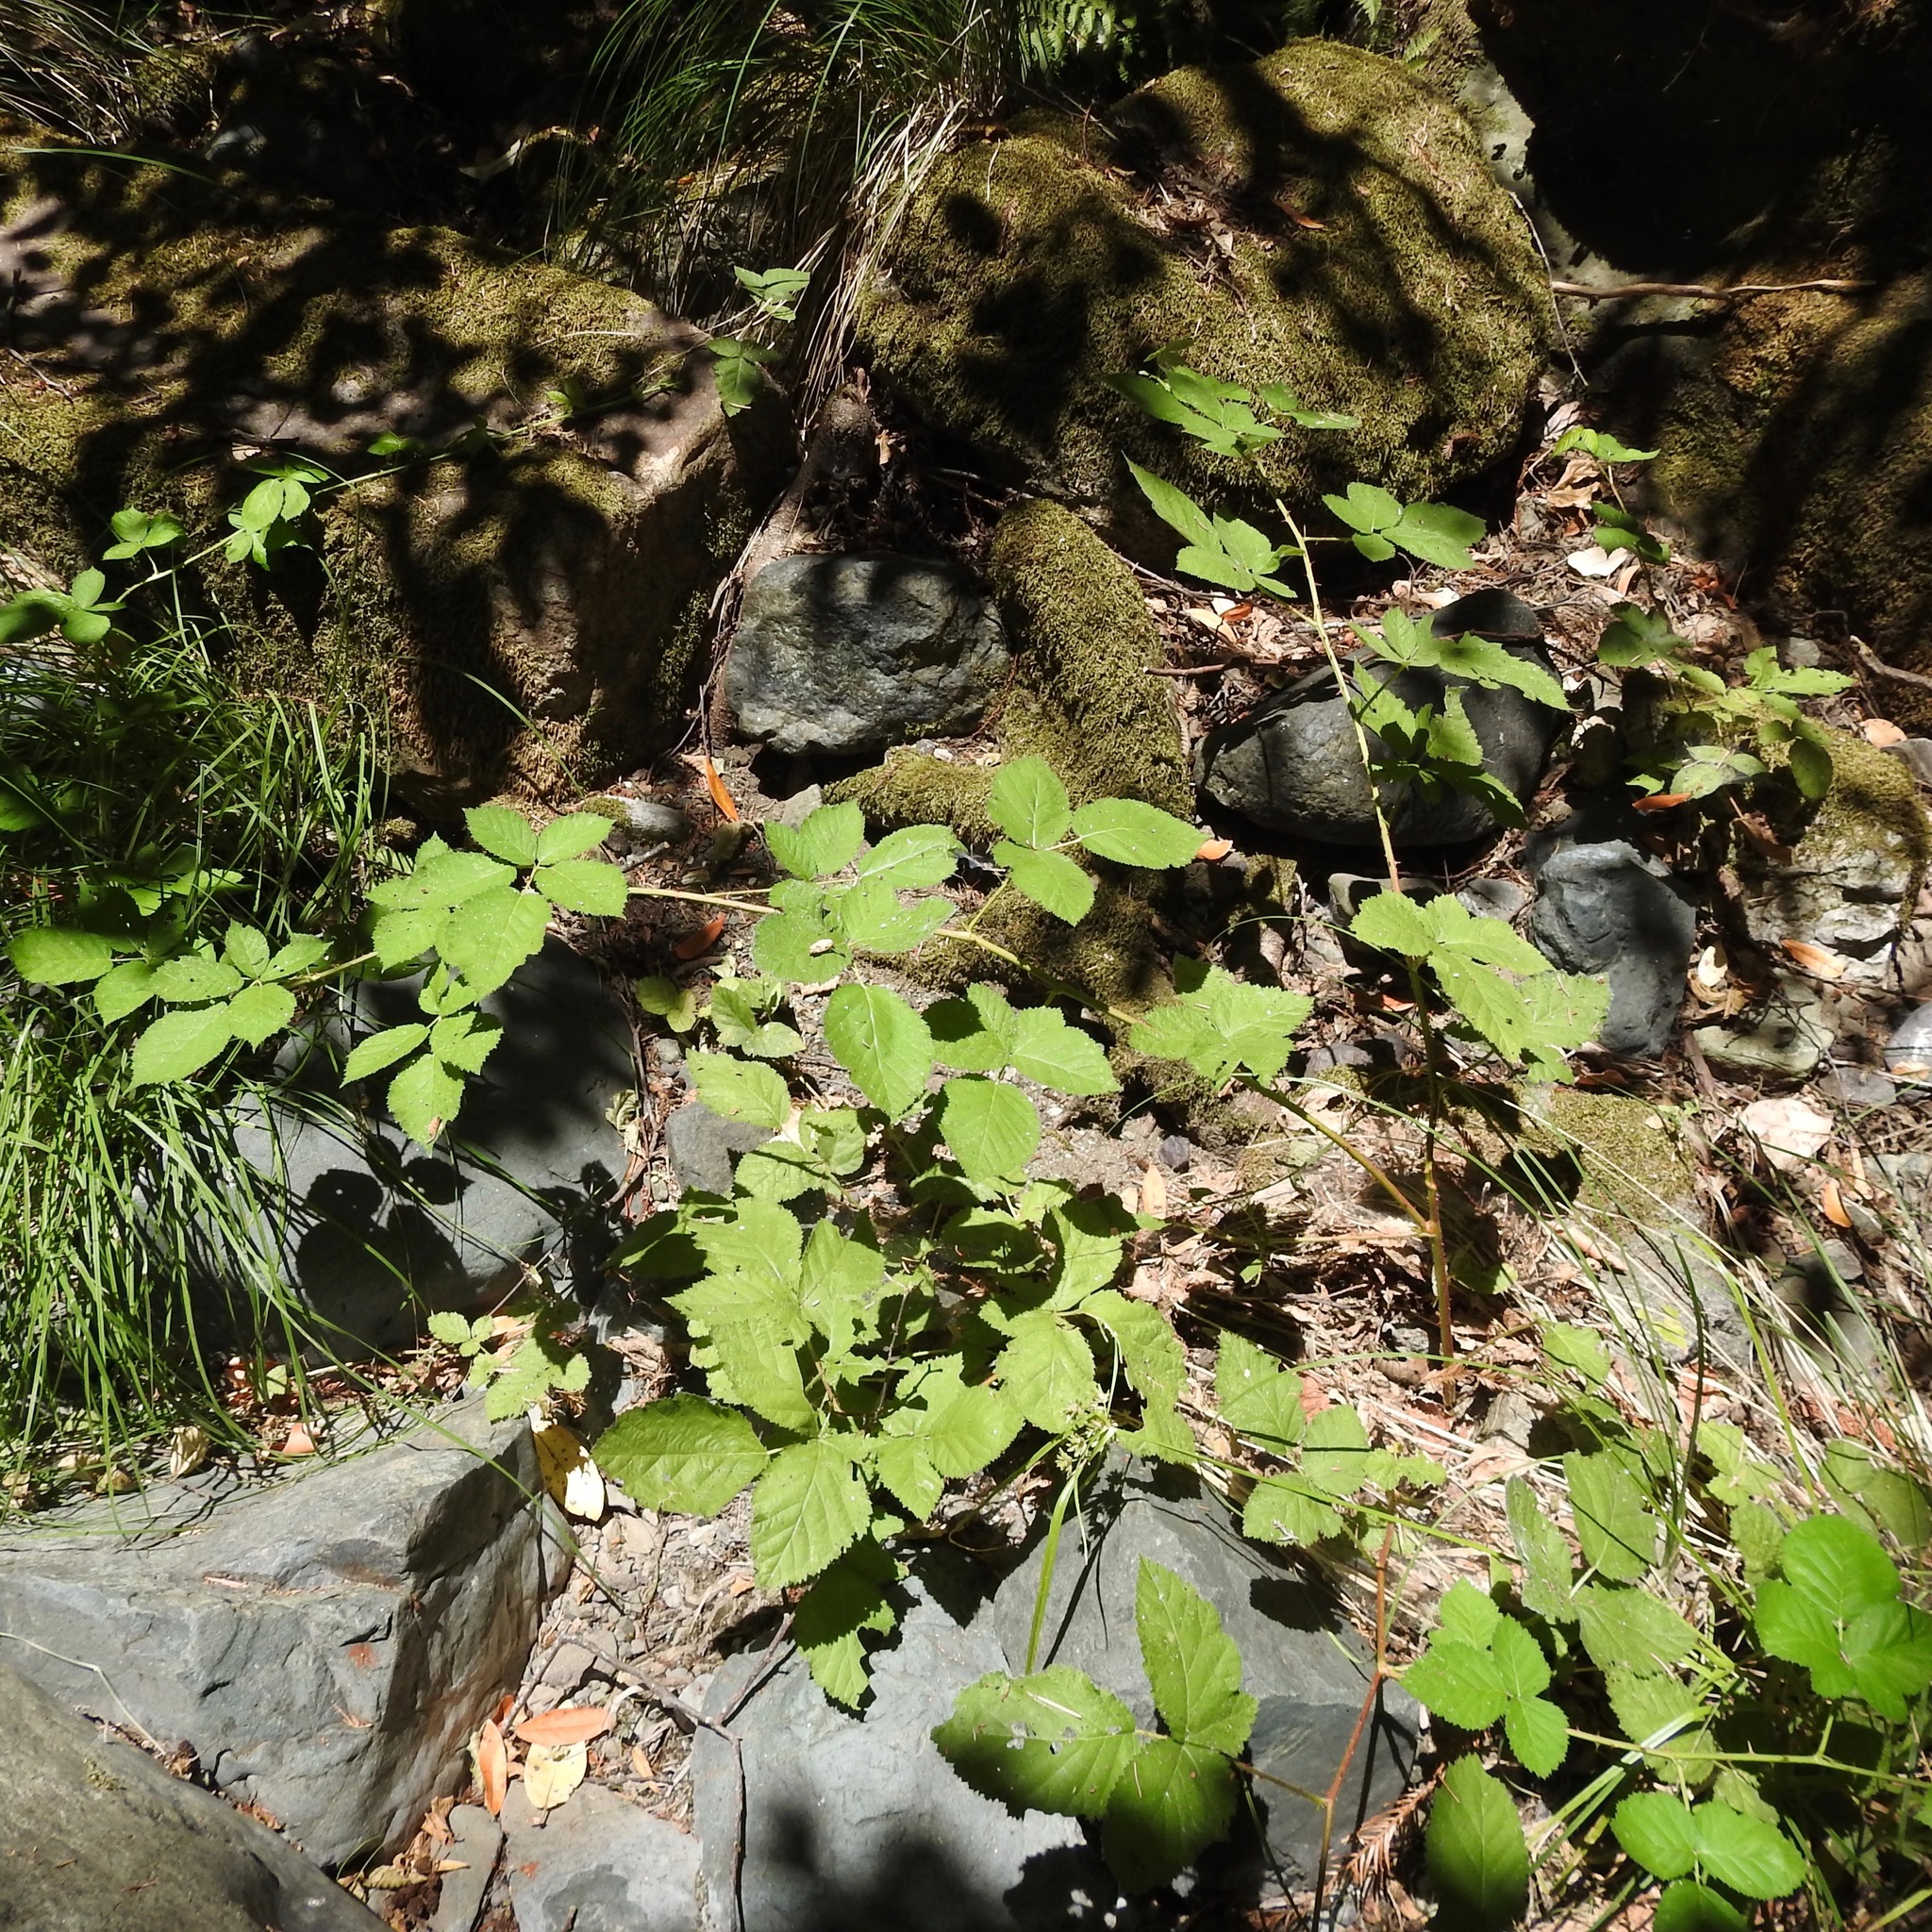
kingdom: Plantae
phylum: Tracheophyta
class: Magnoliopsida
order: Rosales
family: Rosaceae
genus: Rubus
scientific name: Rubus armeniacus
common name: Himalayan blackberry
